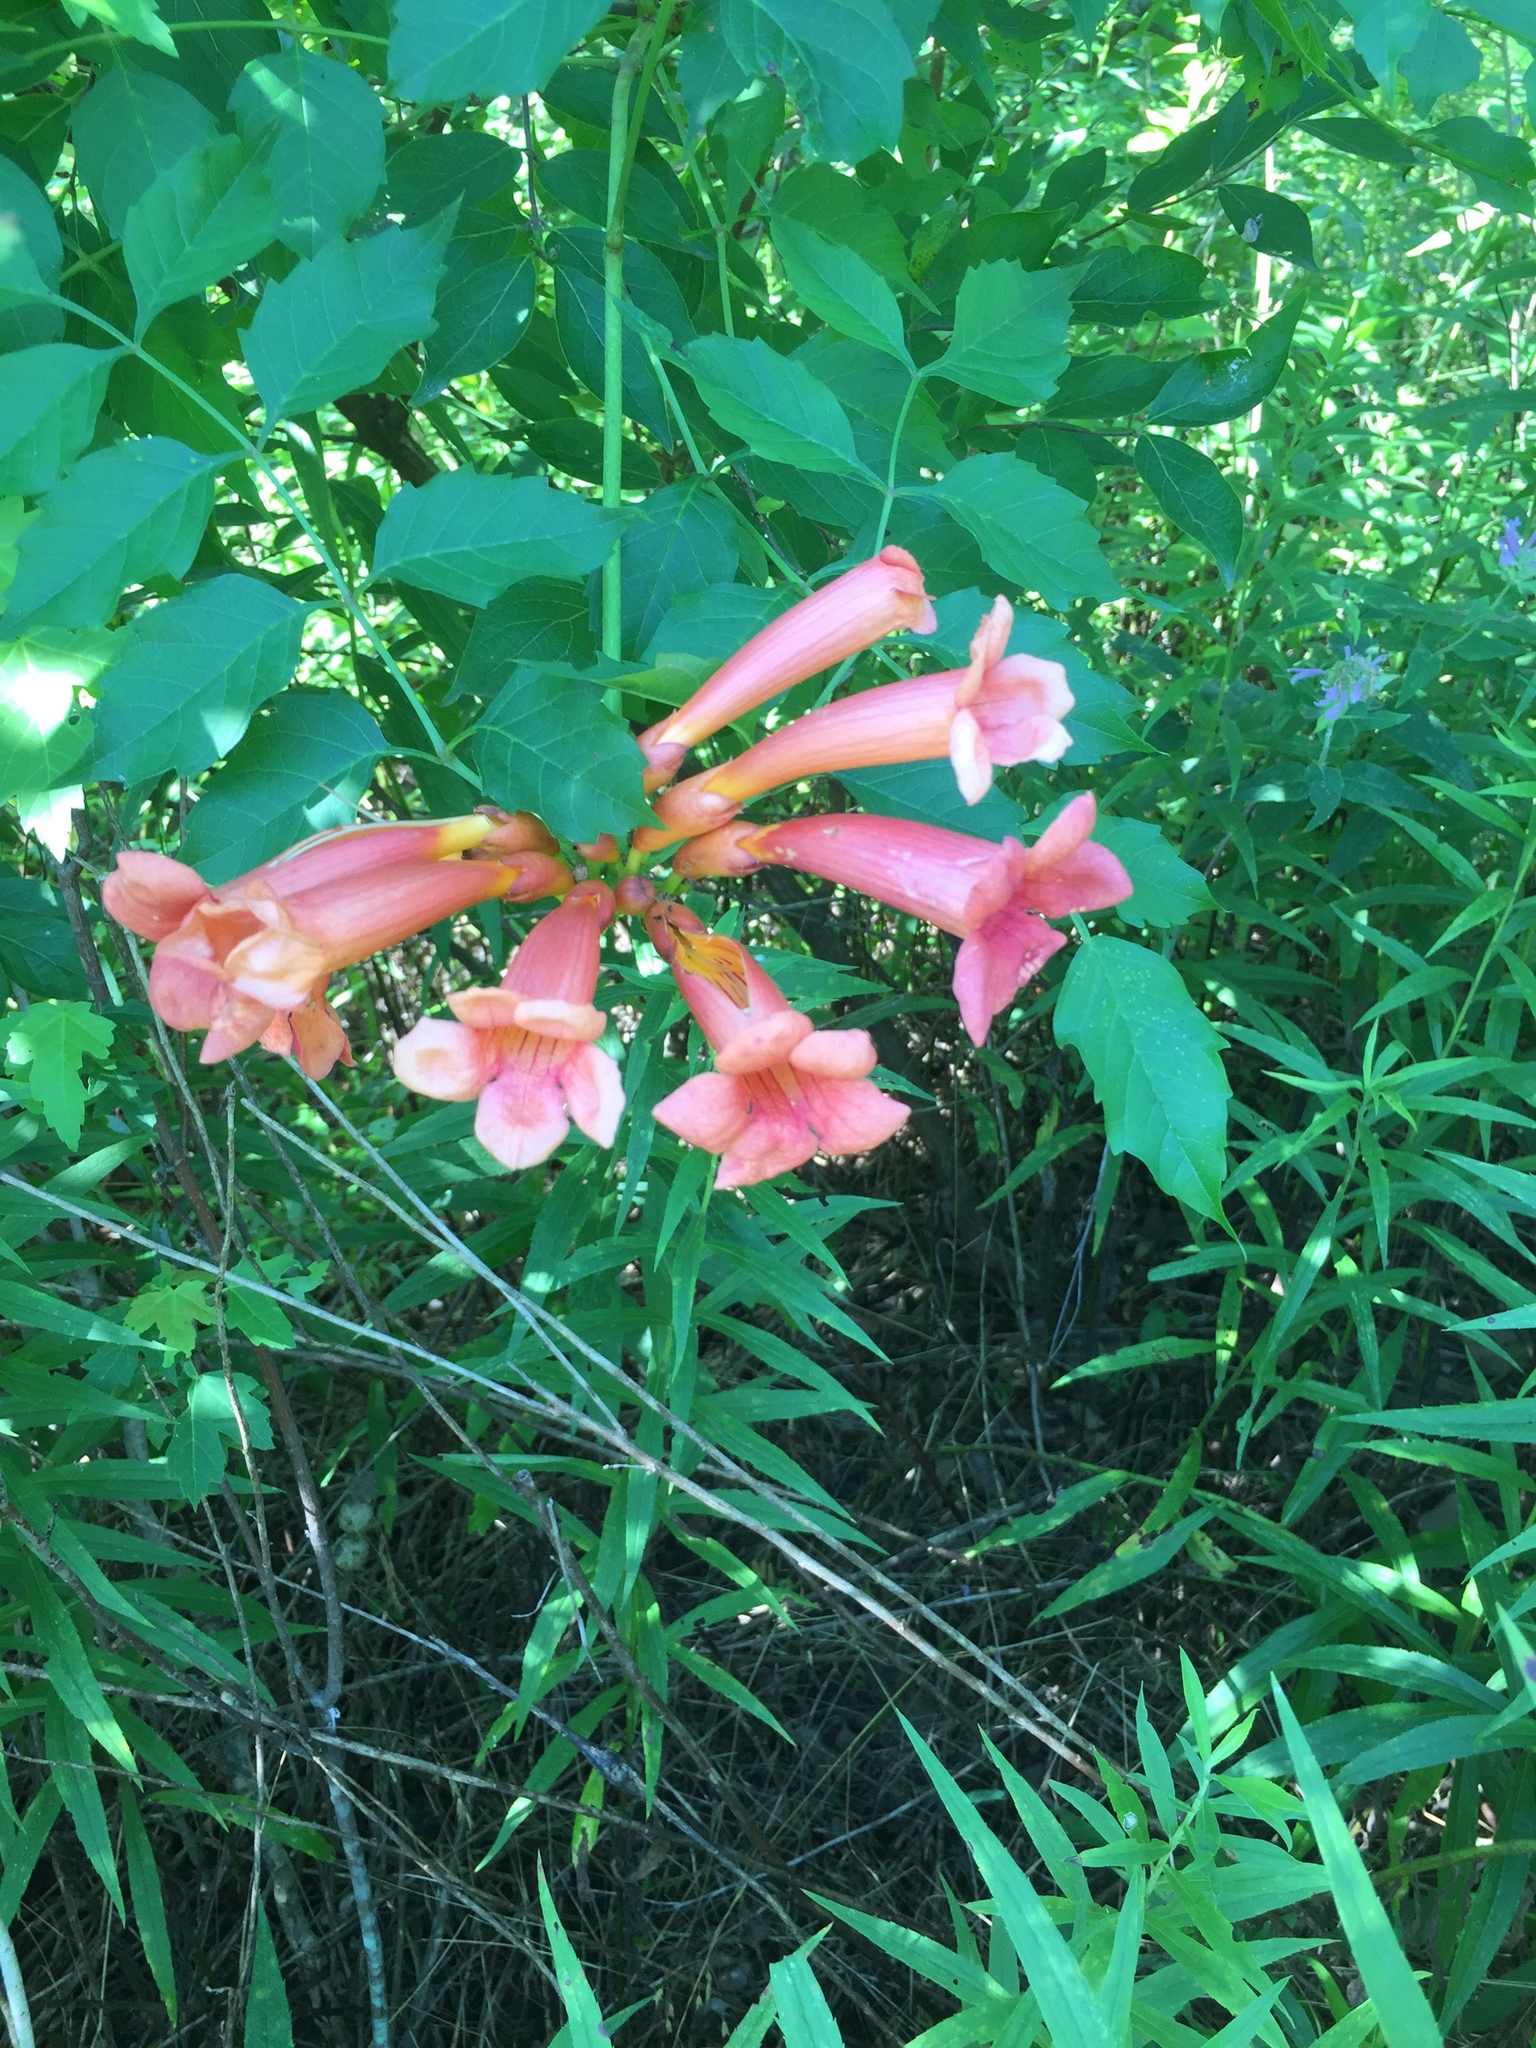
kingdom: Plantae
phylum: Tracheophyta
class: Magnoliopsida
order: Lamiales
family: Bignoniaceae
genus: Campsis
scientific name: Campsis radicans
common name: Trumpet-creeper
